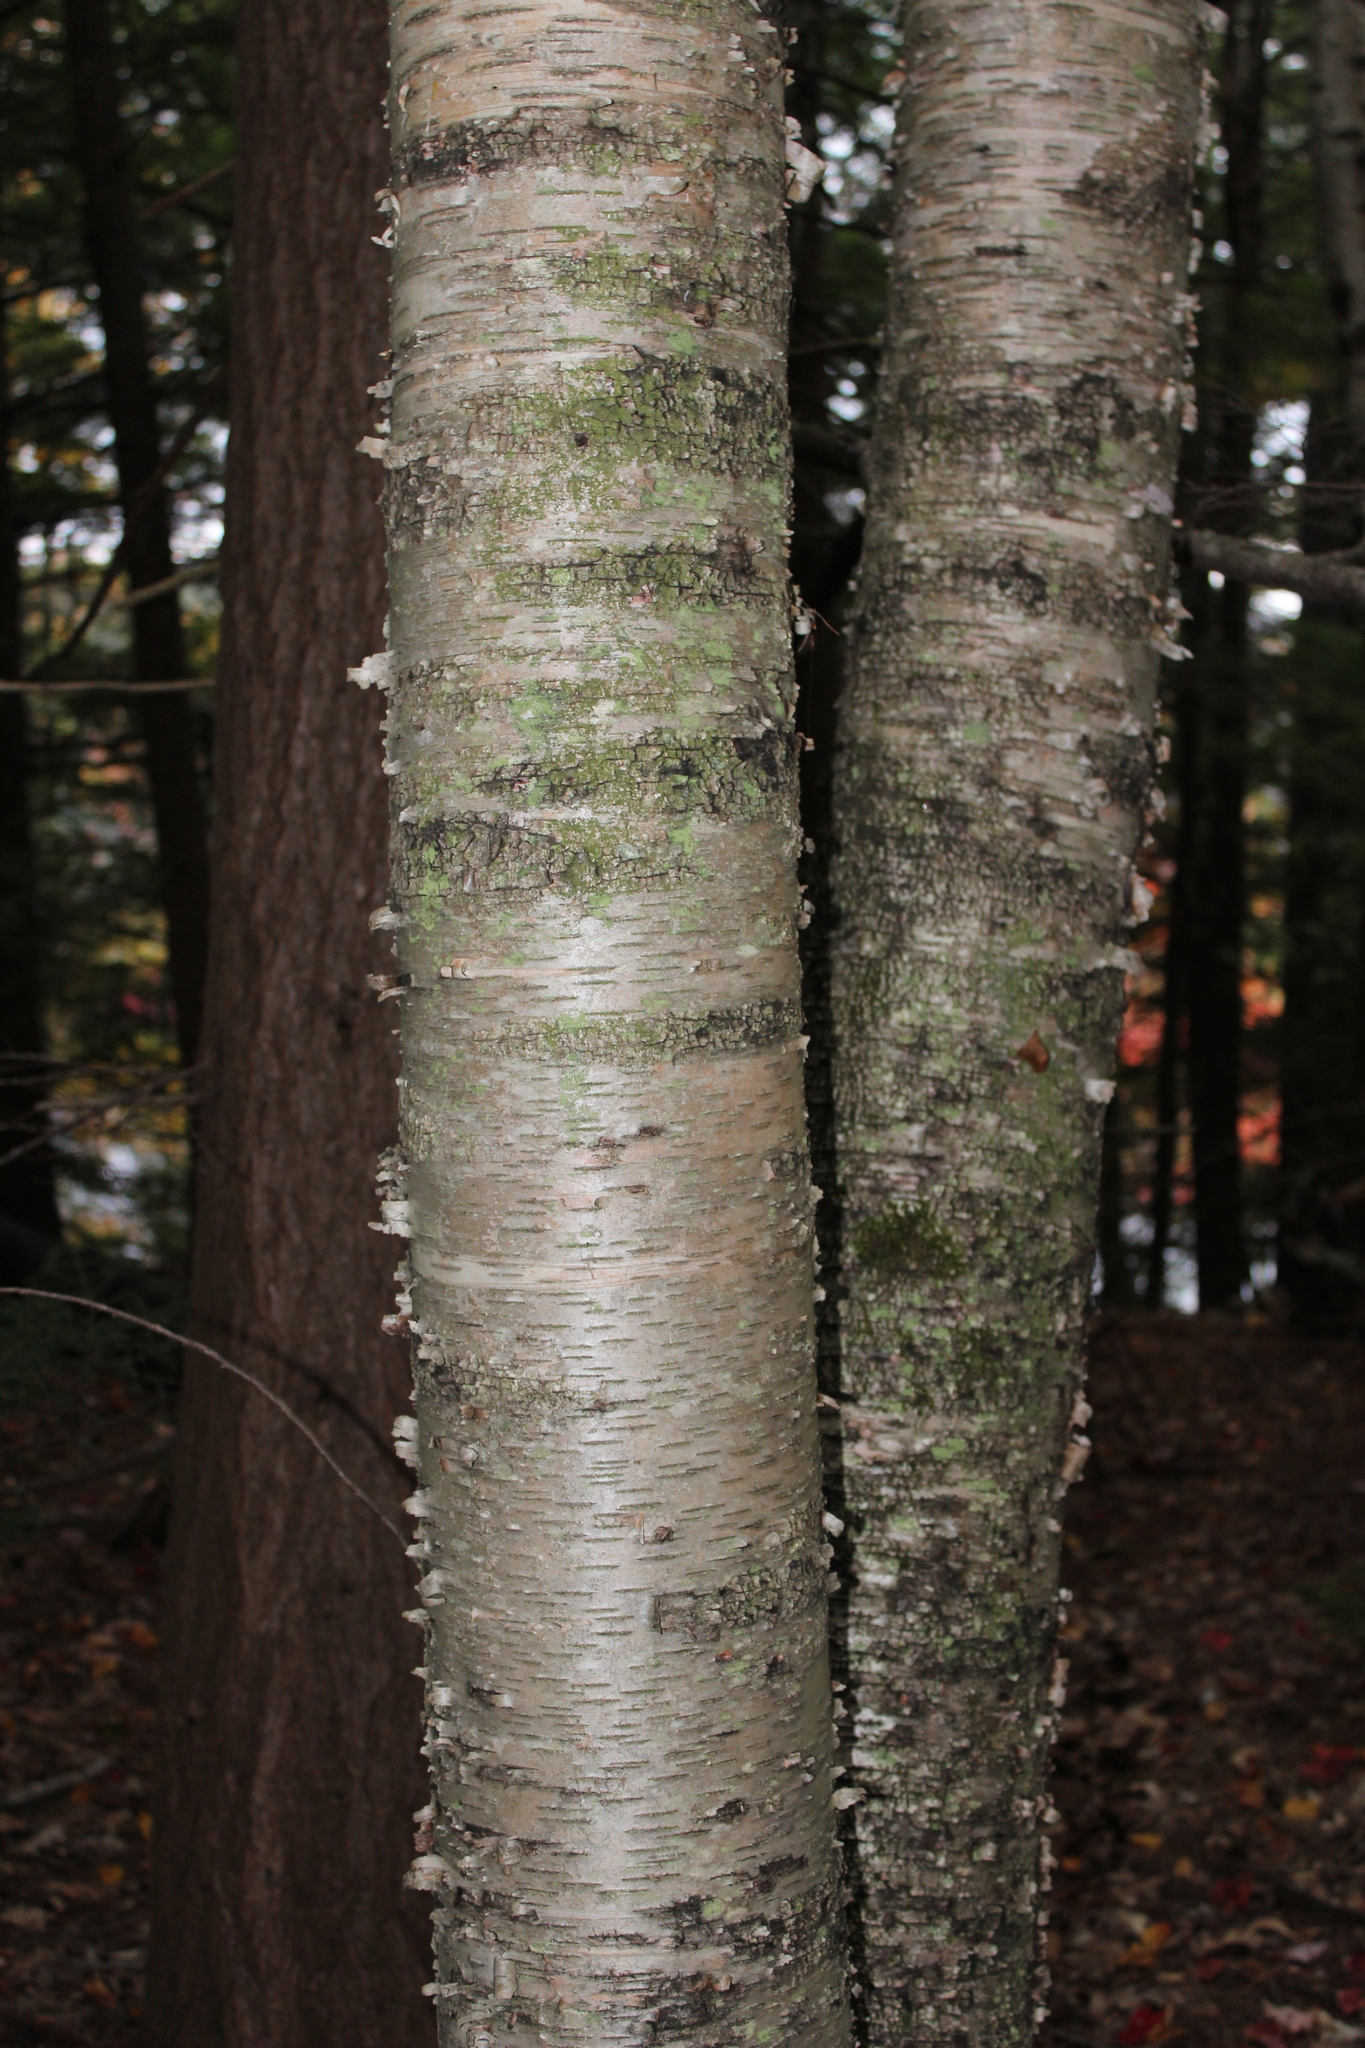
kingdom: Plantae
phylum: Tracheophyta
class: Magnoliopsida
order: Fagales
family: Betulaceae
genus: Betula
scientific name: Betula alleghaniensis
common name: Yellow birch
